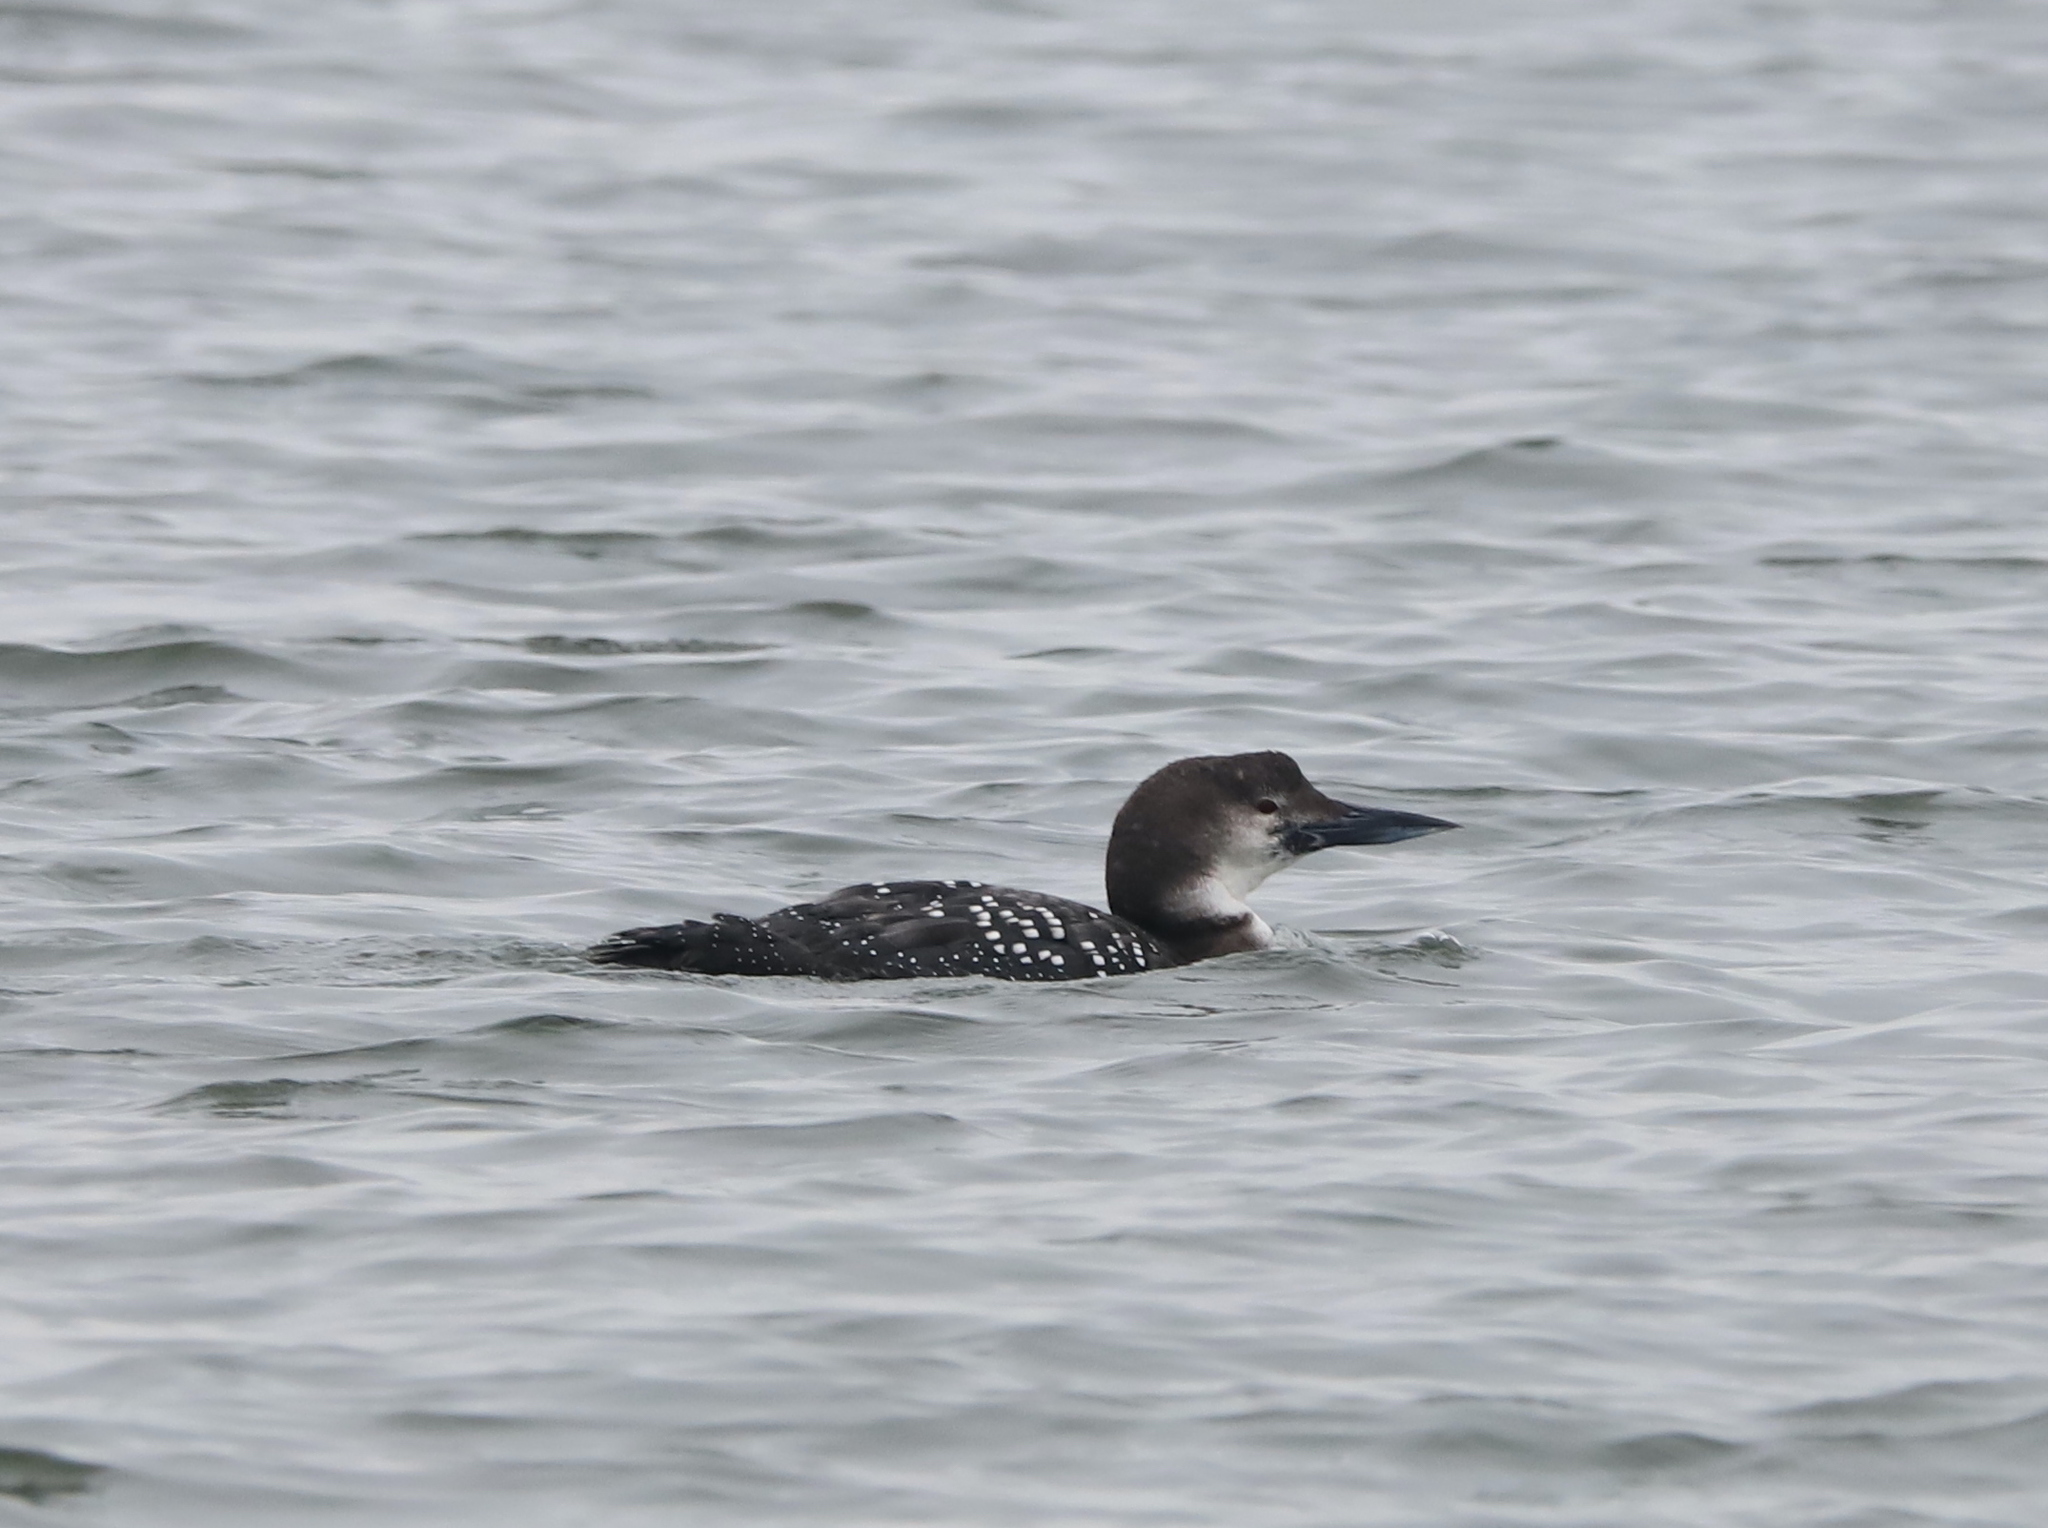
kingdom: Animalia
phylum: Chordata
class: Aves
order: Gaviiformes
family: Gaviidae
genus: Gavia
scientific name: Gavia immer
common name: Common loon
